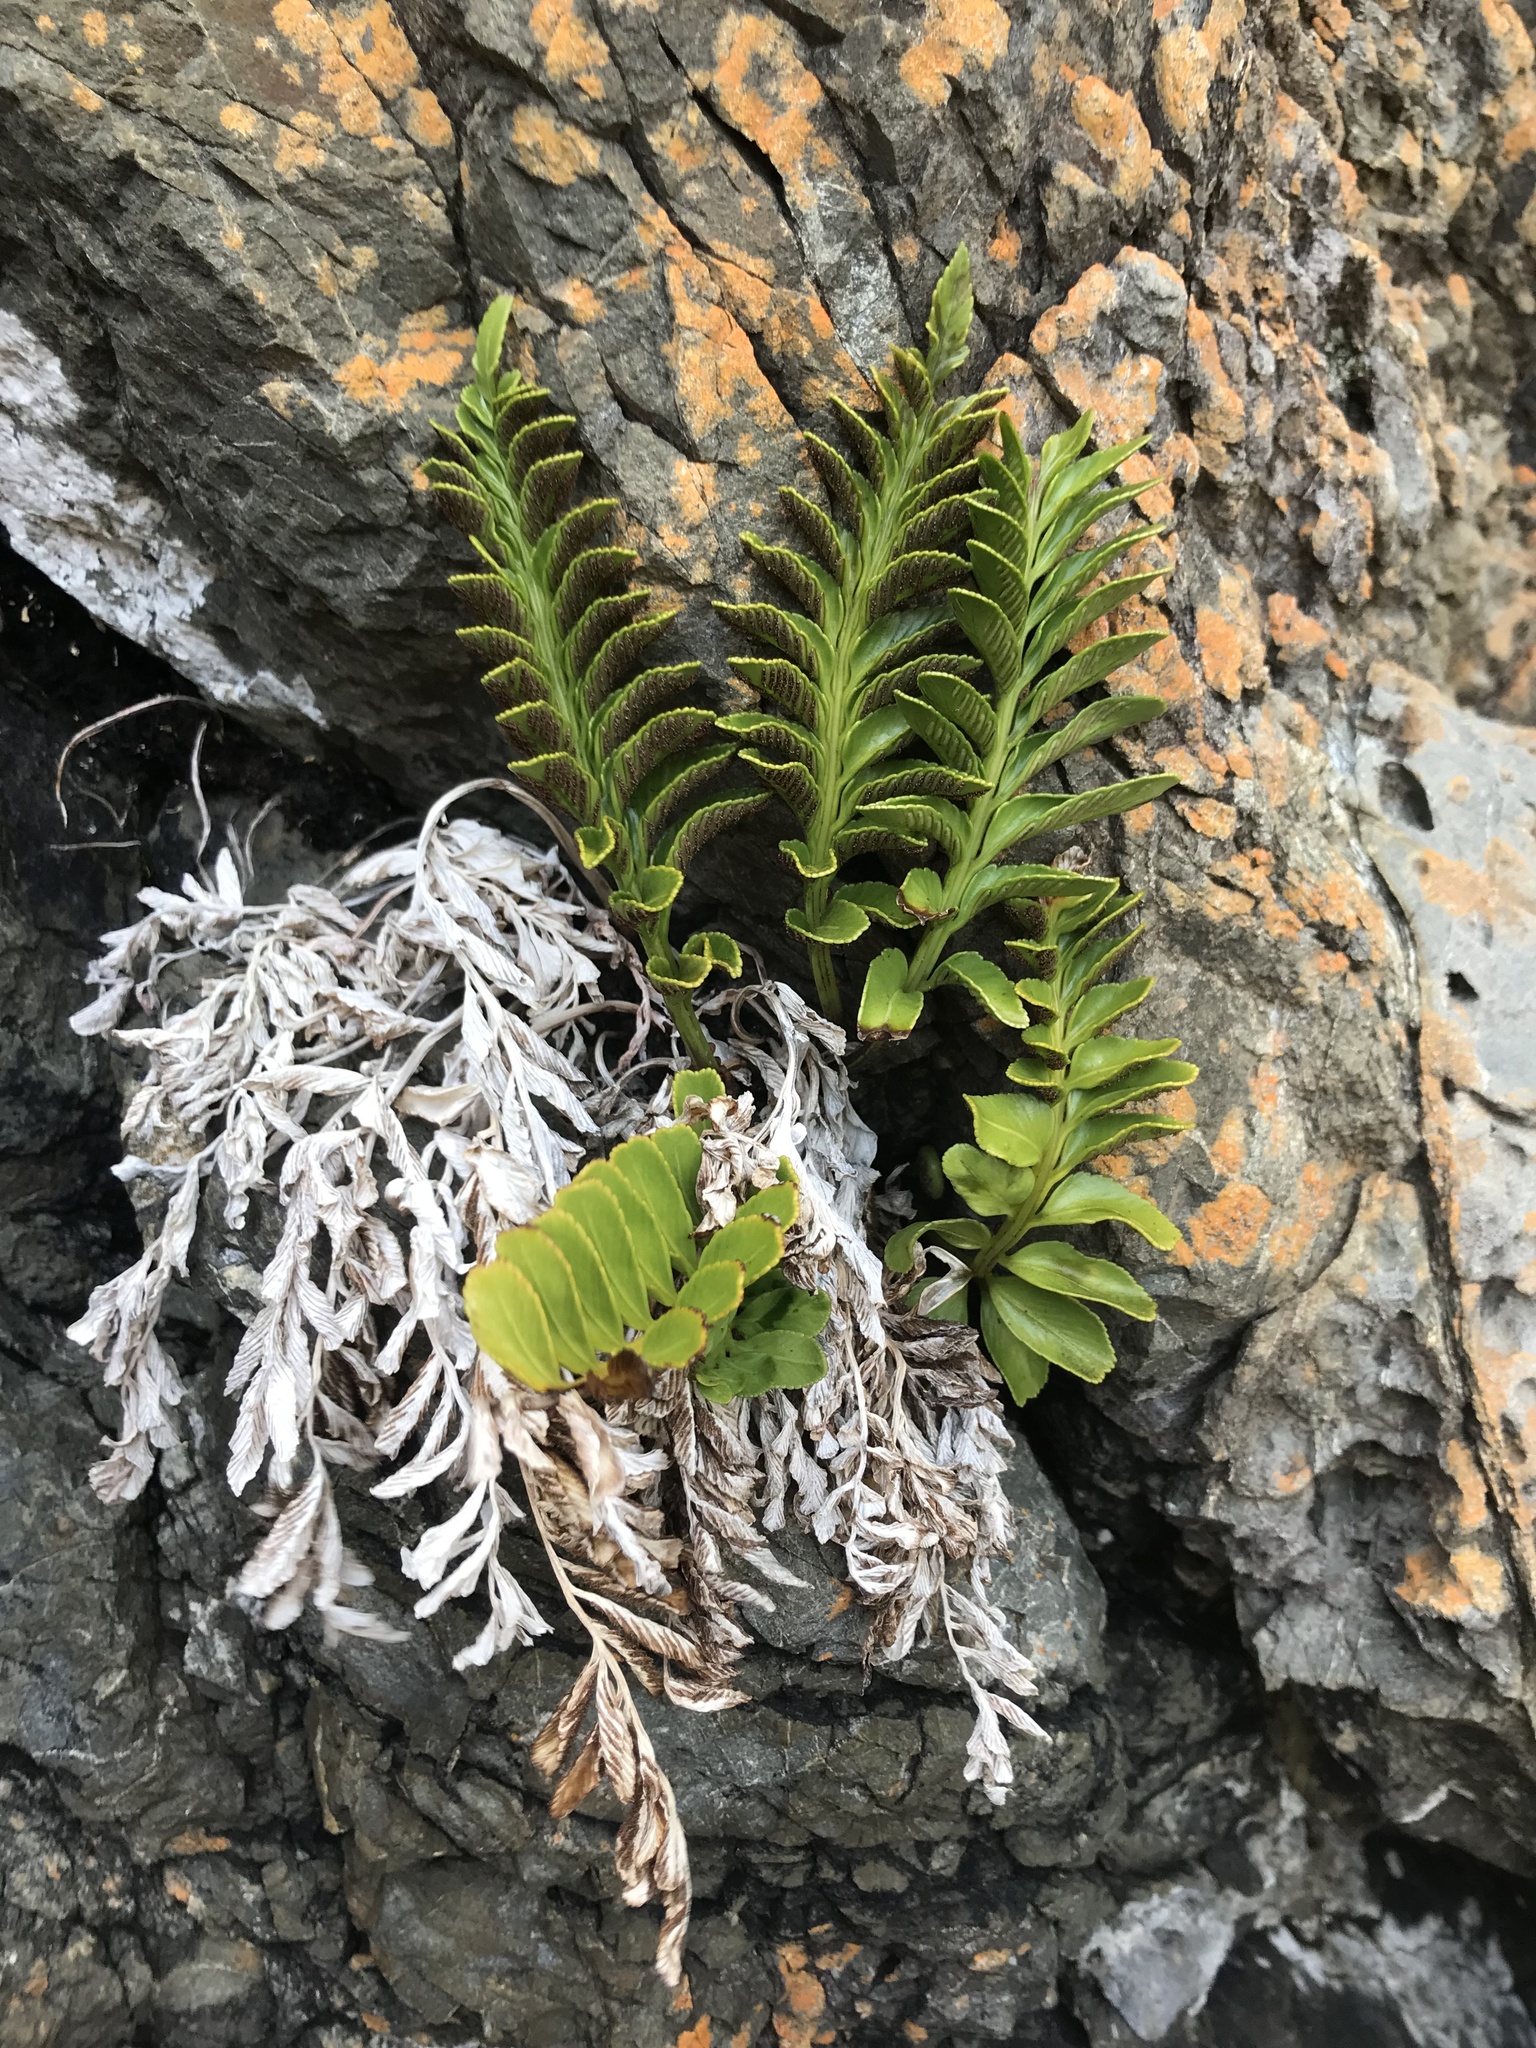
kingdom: Plantae
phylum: Tracheophyta
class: Polypodiopsida
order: Polypodiales
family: Aspleniaceae
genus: Asplenium
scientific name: Asplenium obtusatum
